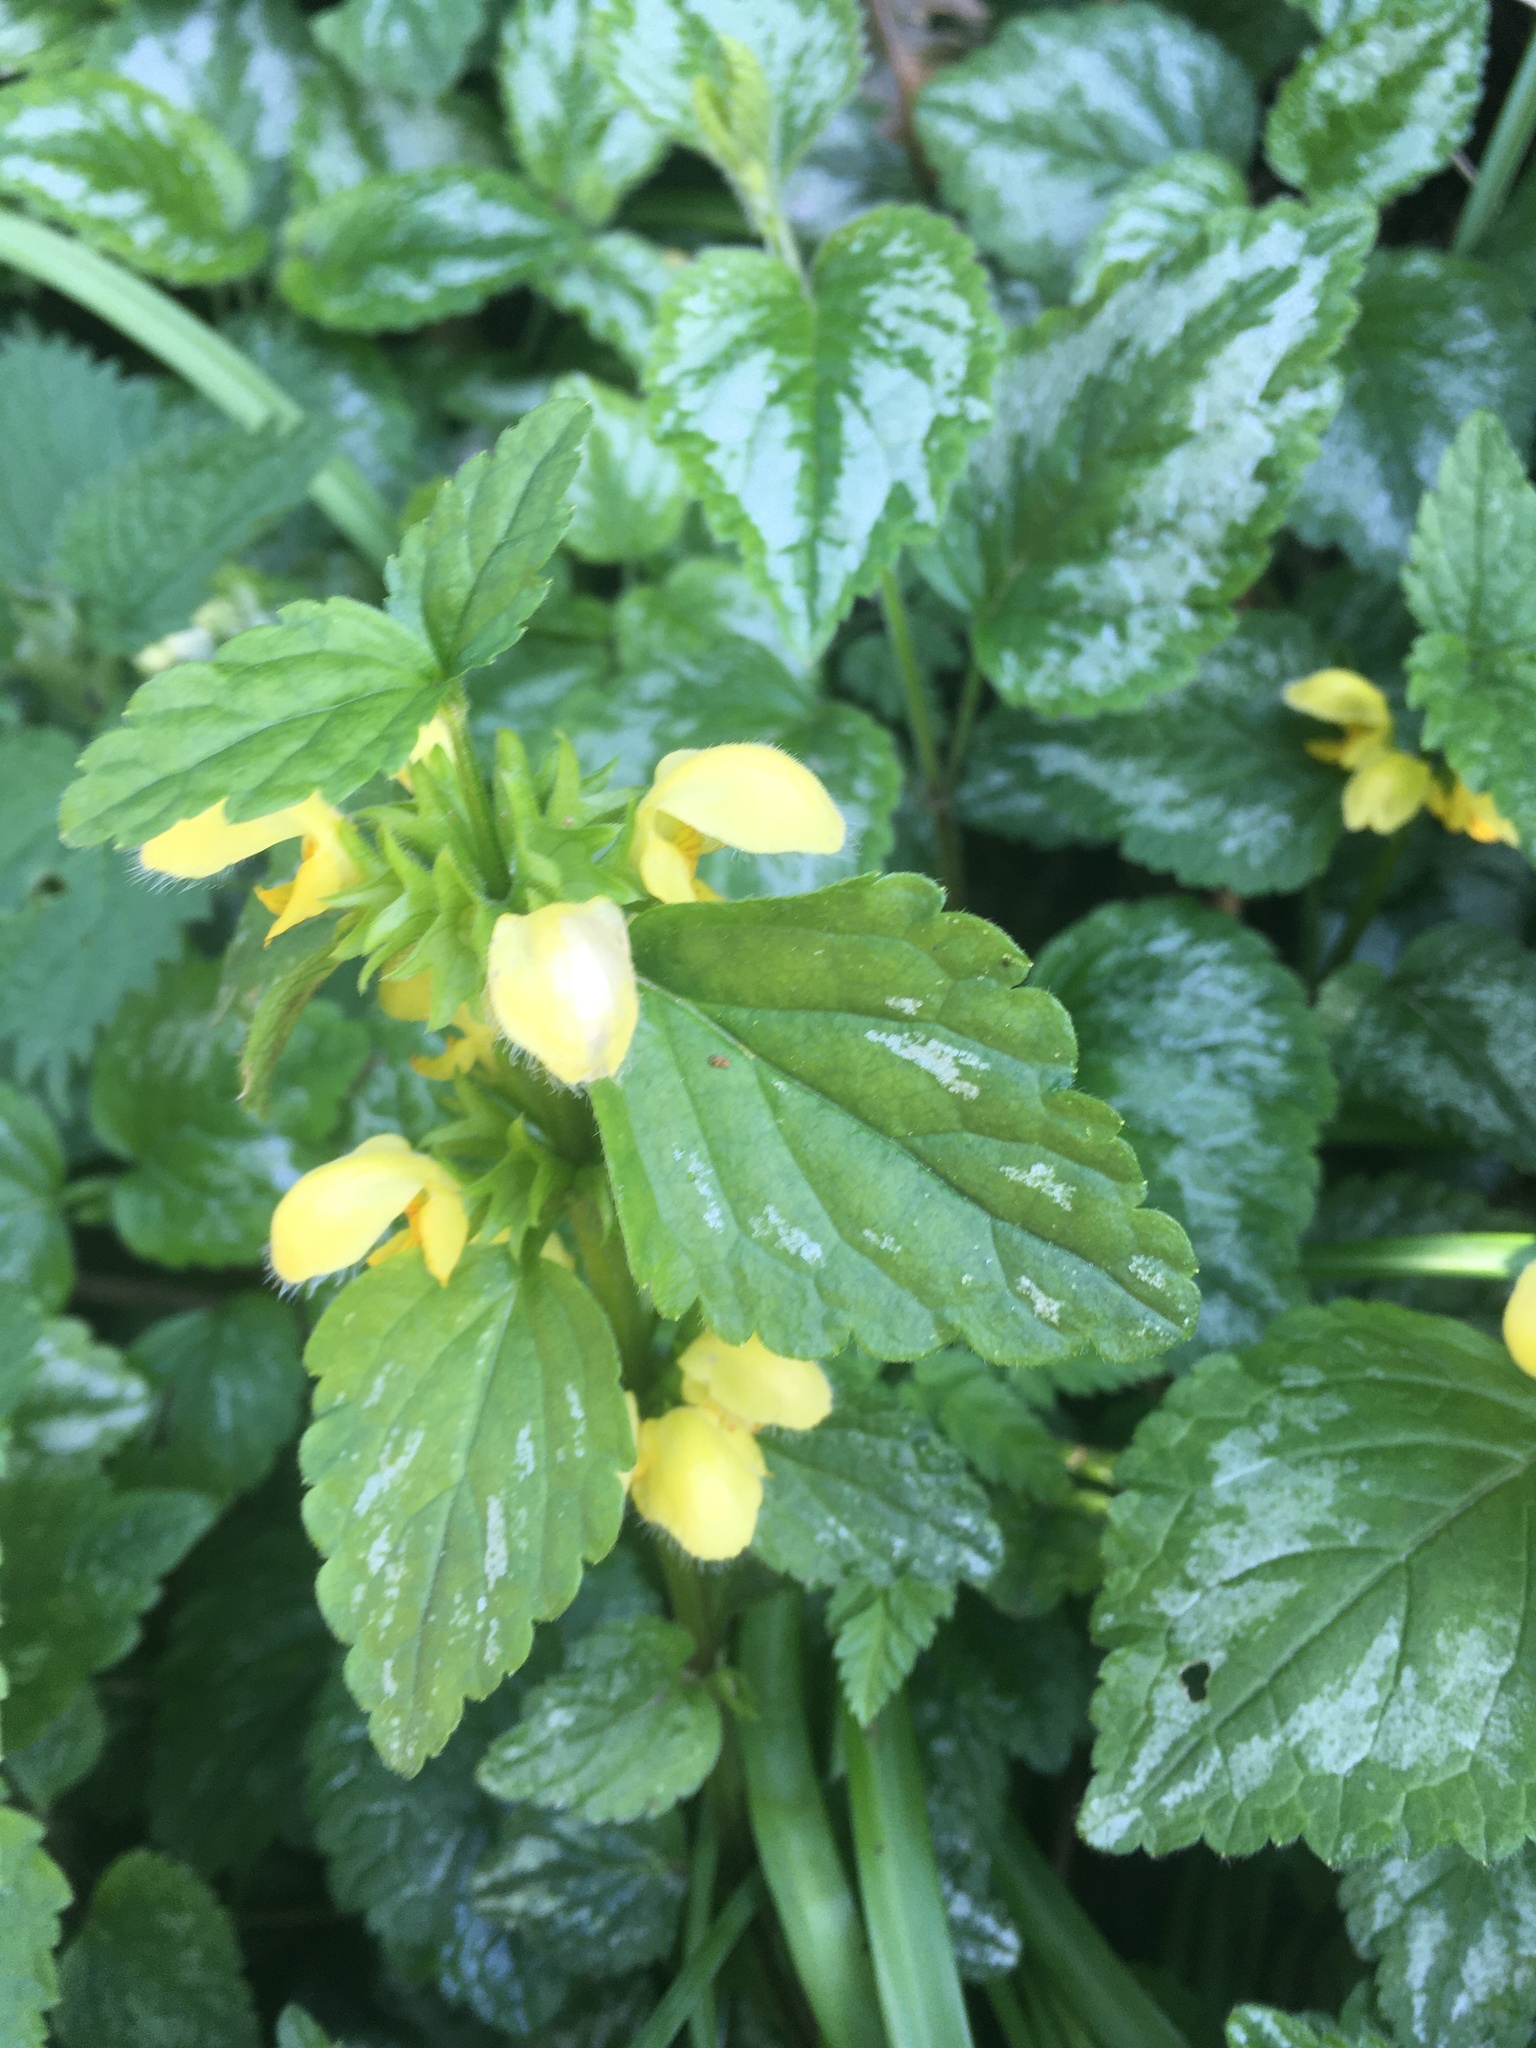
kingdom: Plantae
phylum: Tracheophyta
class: Magnoliopsida
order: Lamiales
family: Lamiaceae
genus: Lamium
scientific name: Lamium galeobdolon
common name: Yellow archangel
